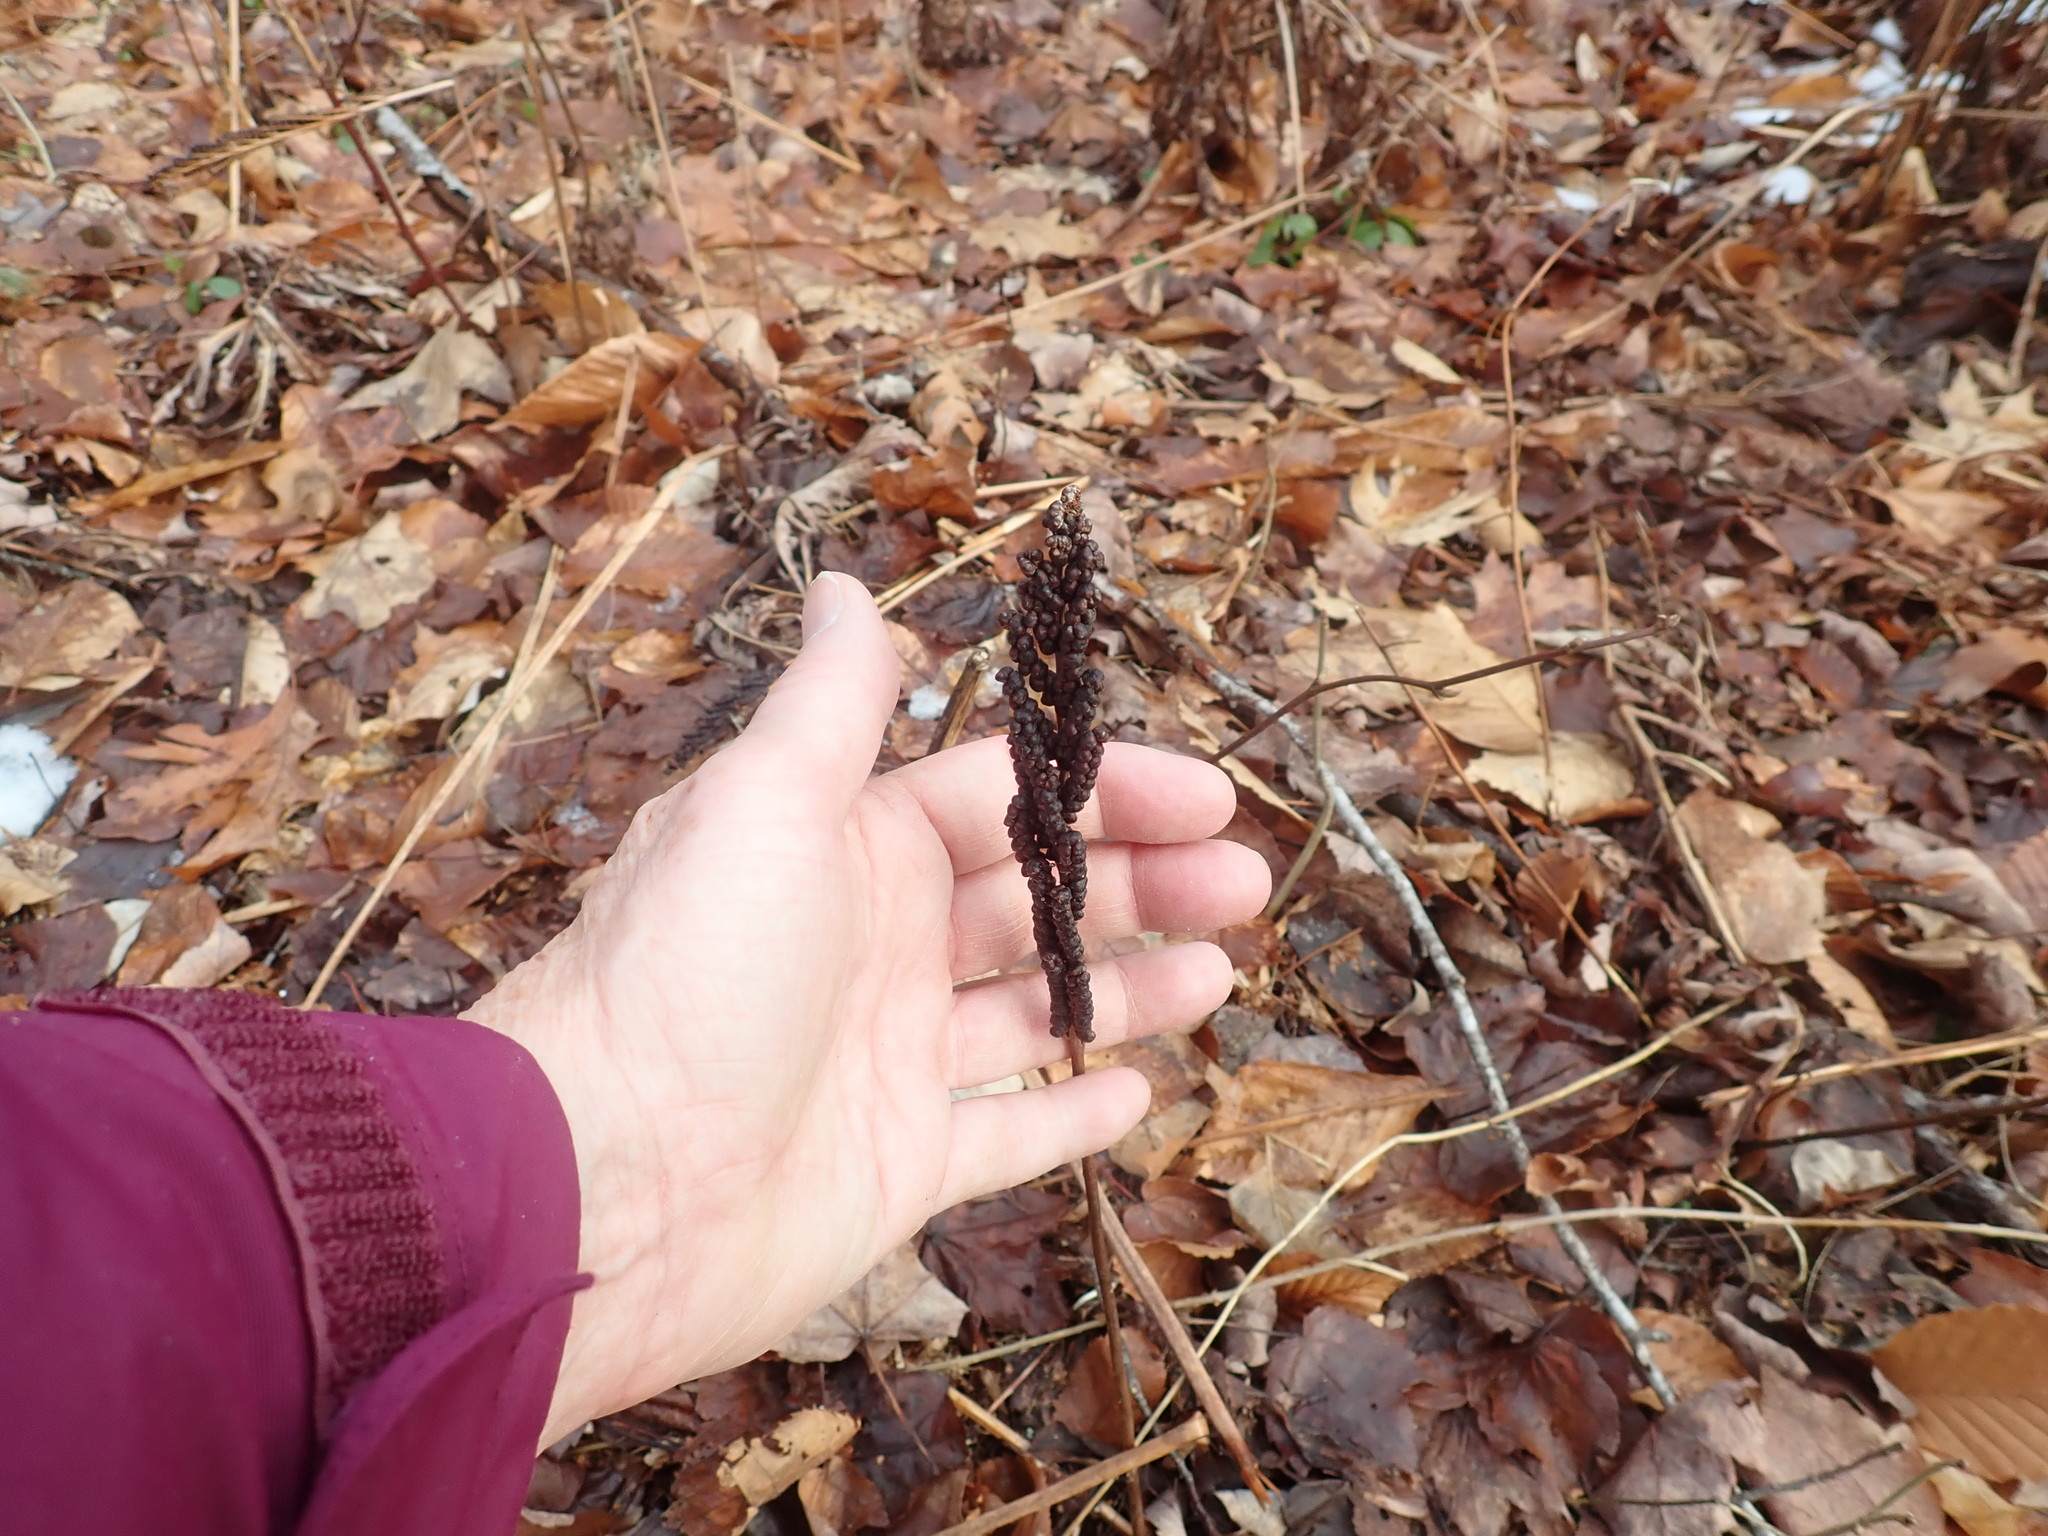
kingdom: Plantae
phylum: Tracheophyta
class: Polypodiopsida
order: Polypodiales
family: Onocleaceae
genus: Onoclea
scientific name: Onoclea sensibilis
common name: Sensitive fern
